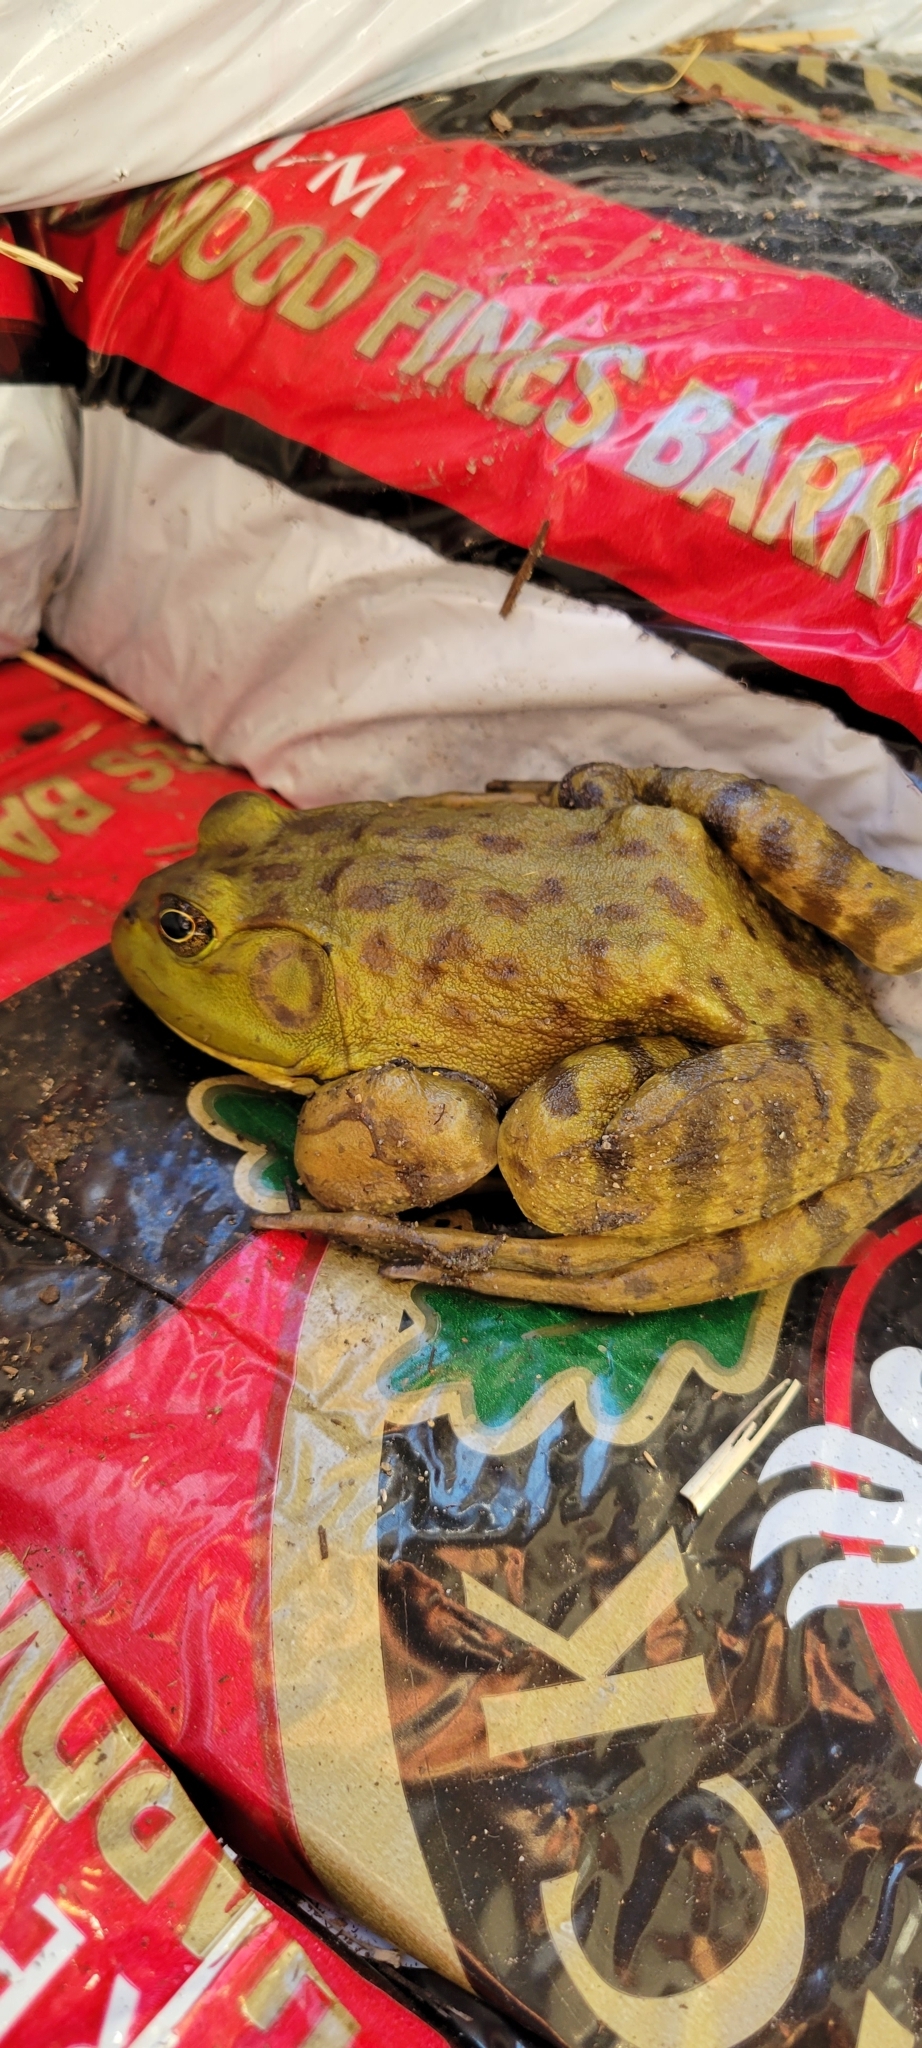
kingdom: Animalia
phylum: Chordata
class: Amphibia
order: Anura
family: Ranidae
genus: Lithobates
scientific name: Lithobates catesbeianus
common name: American bullfrog
